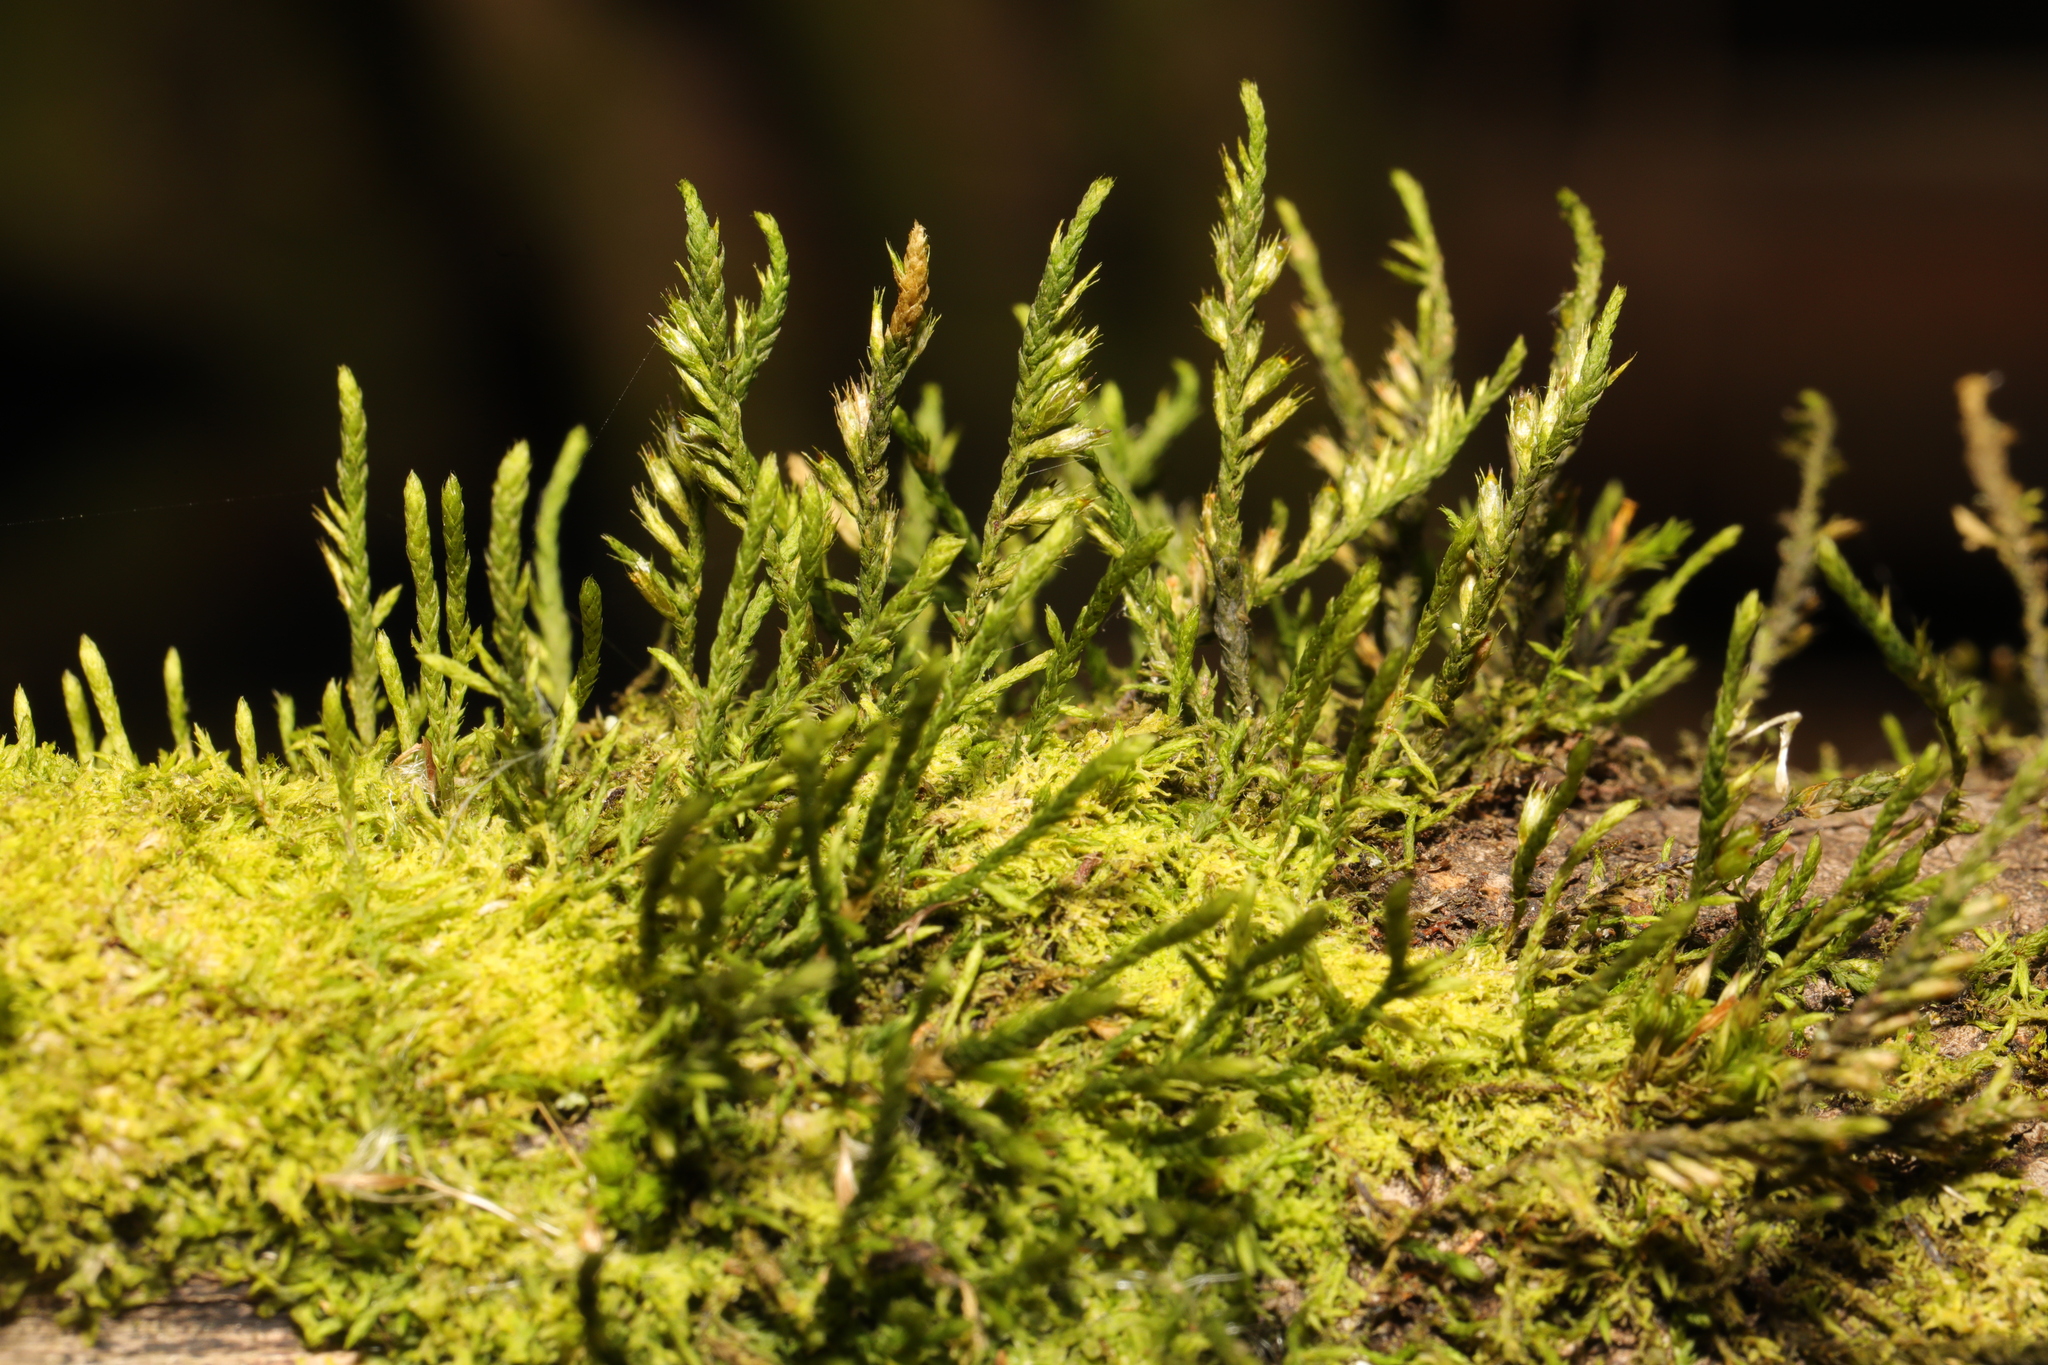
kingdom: Plantae
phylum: Bryophyta
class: Bryopsida
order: Hypnales
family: Cryphaeaceae
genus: Cryphaea
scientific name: Cryphaea heteromalla
